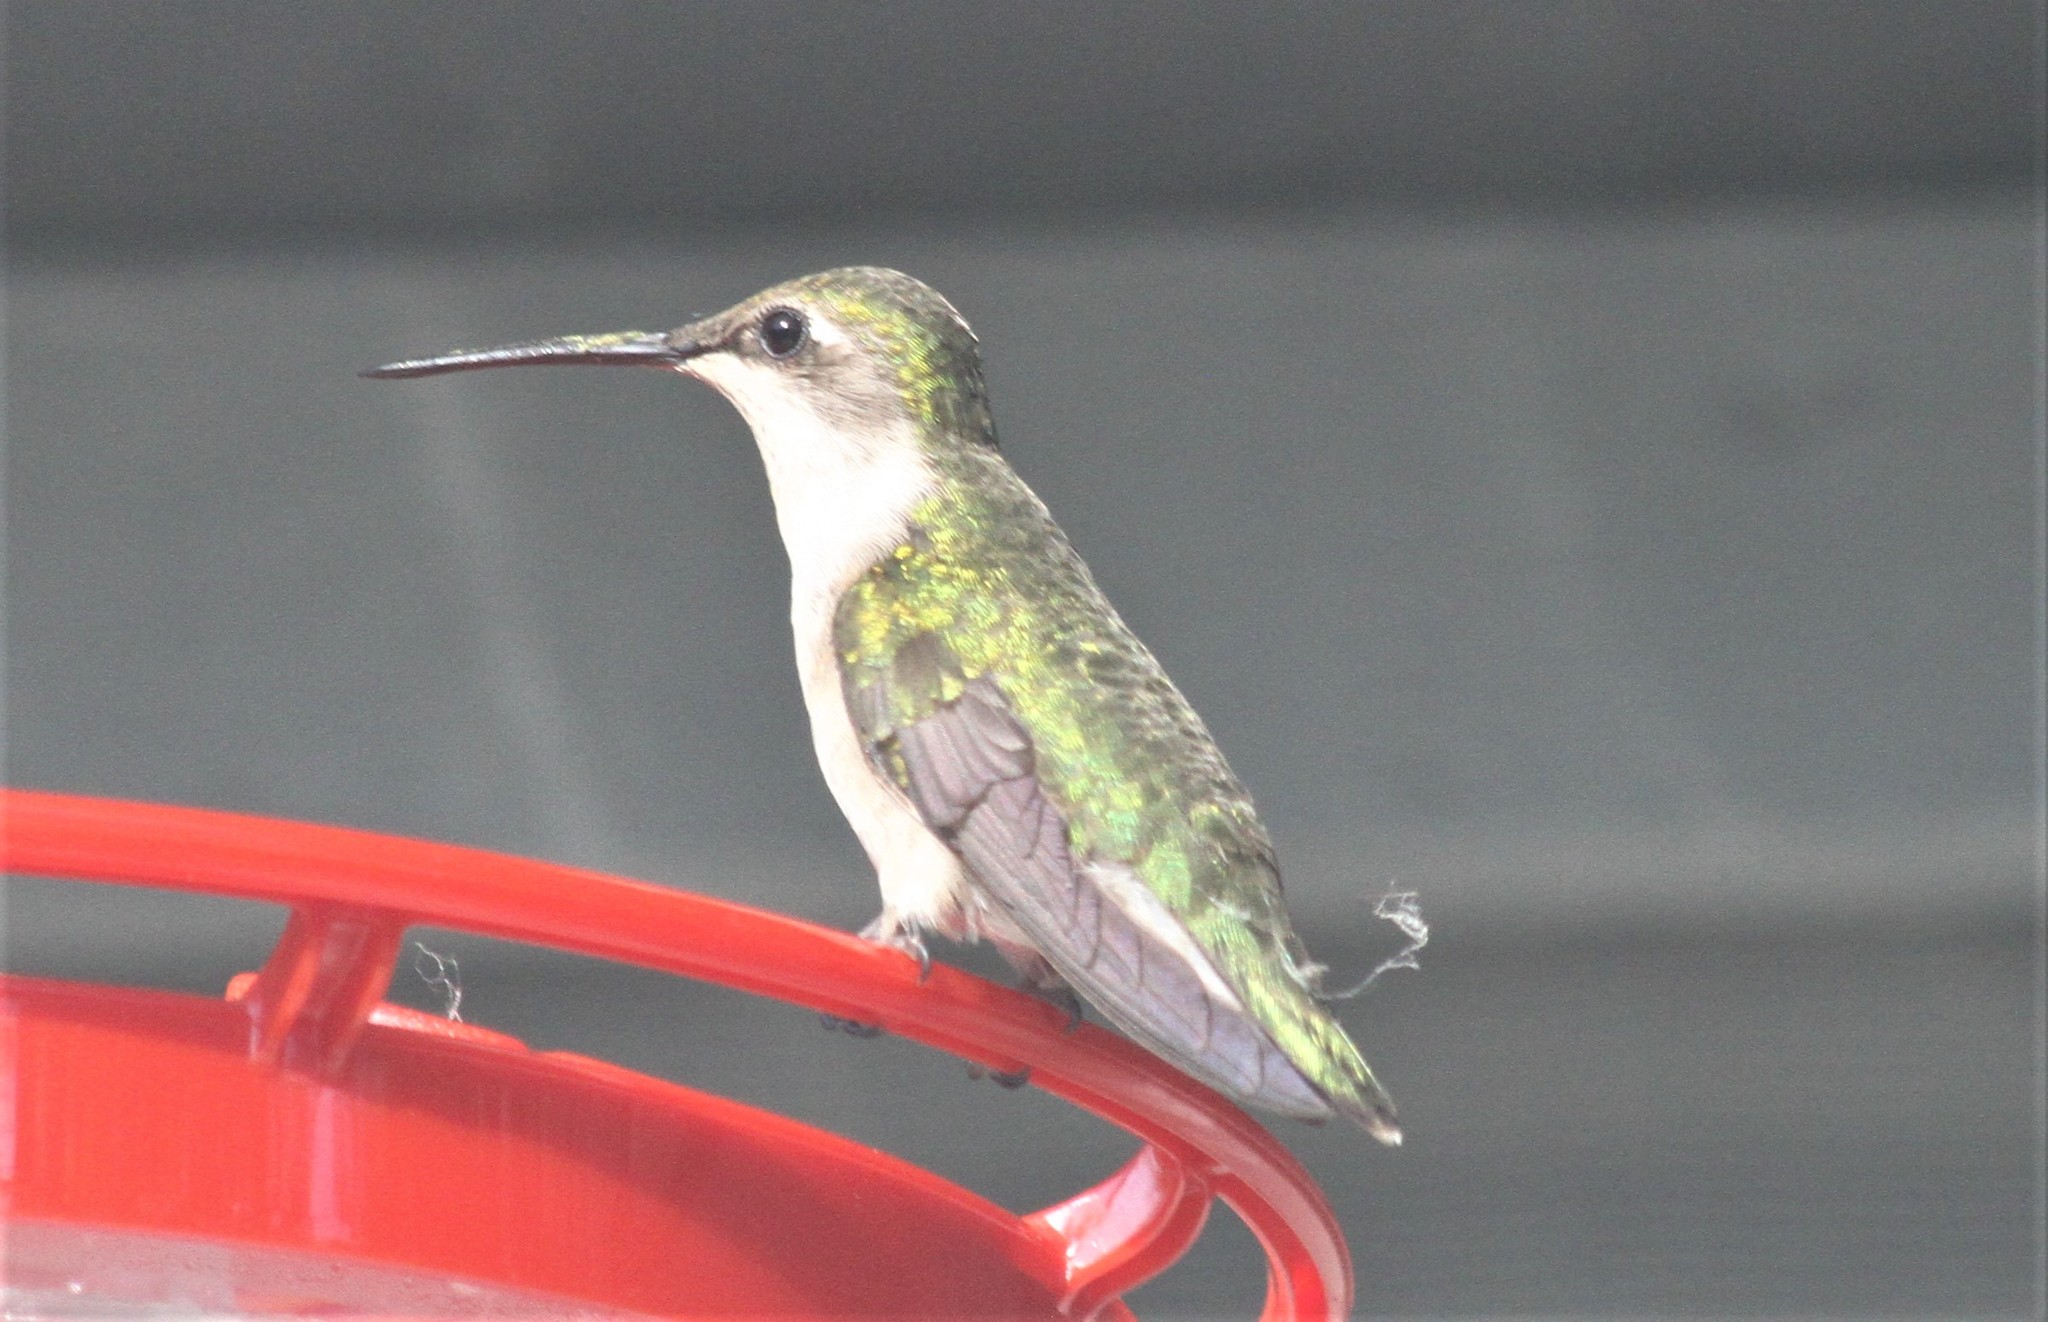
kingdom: Animalia
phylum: Chordata
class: Aves
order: Apodiformes
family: Trochilidae
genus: Archilochus
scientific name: Archilochus colubris
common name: Ruby-throated hummingbird
